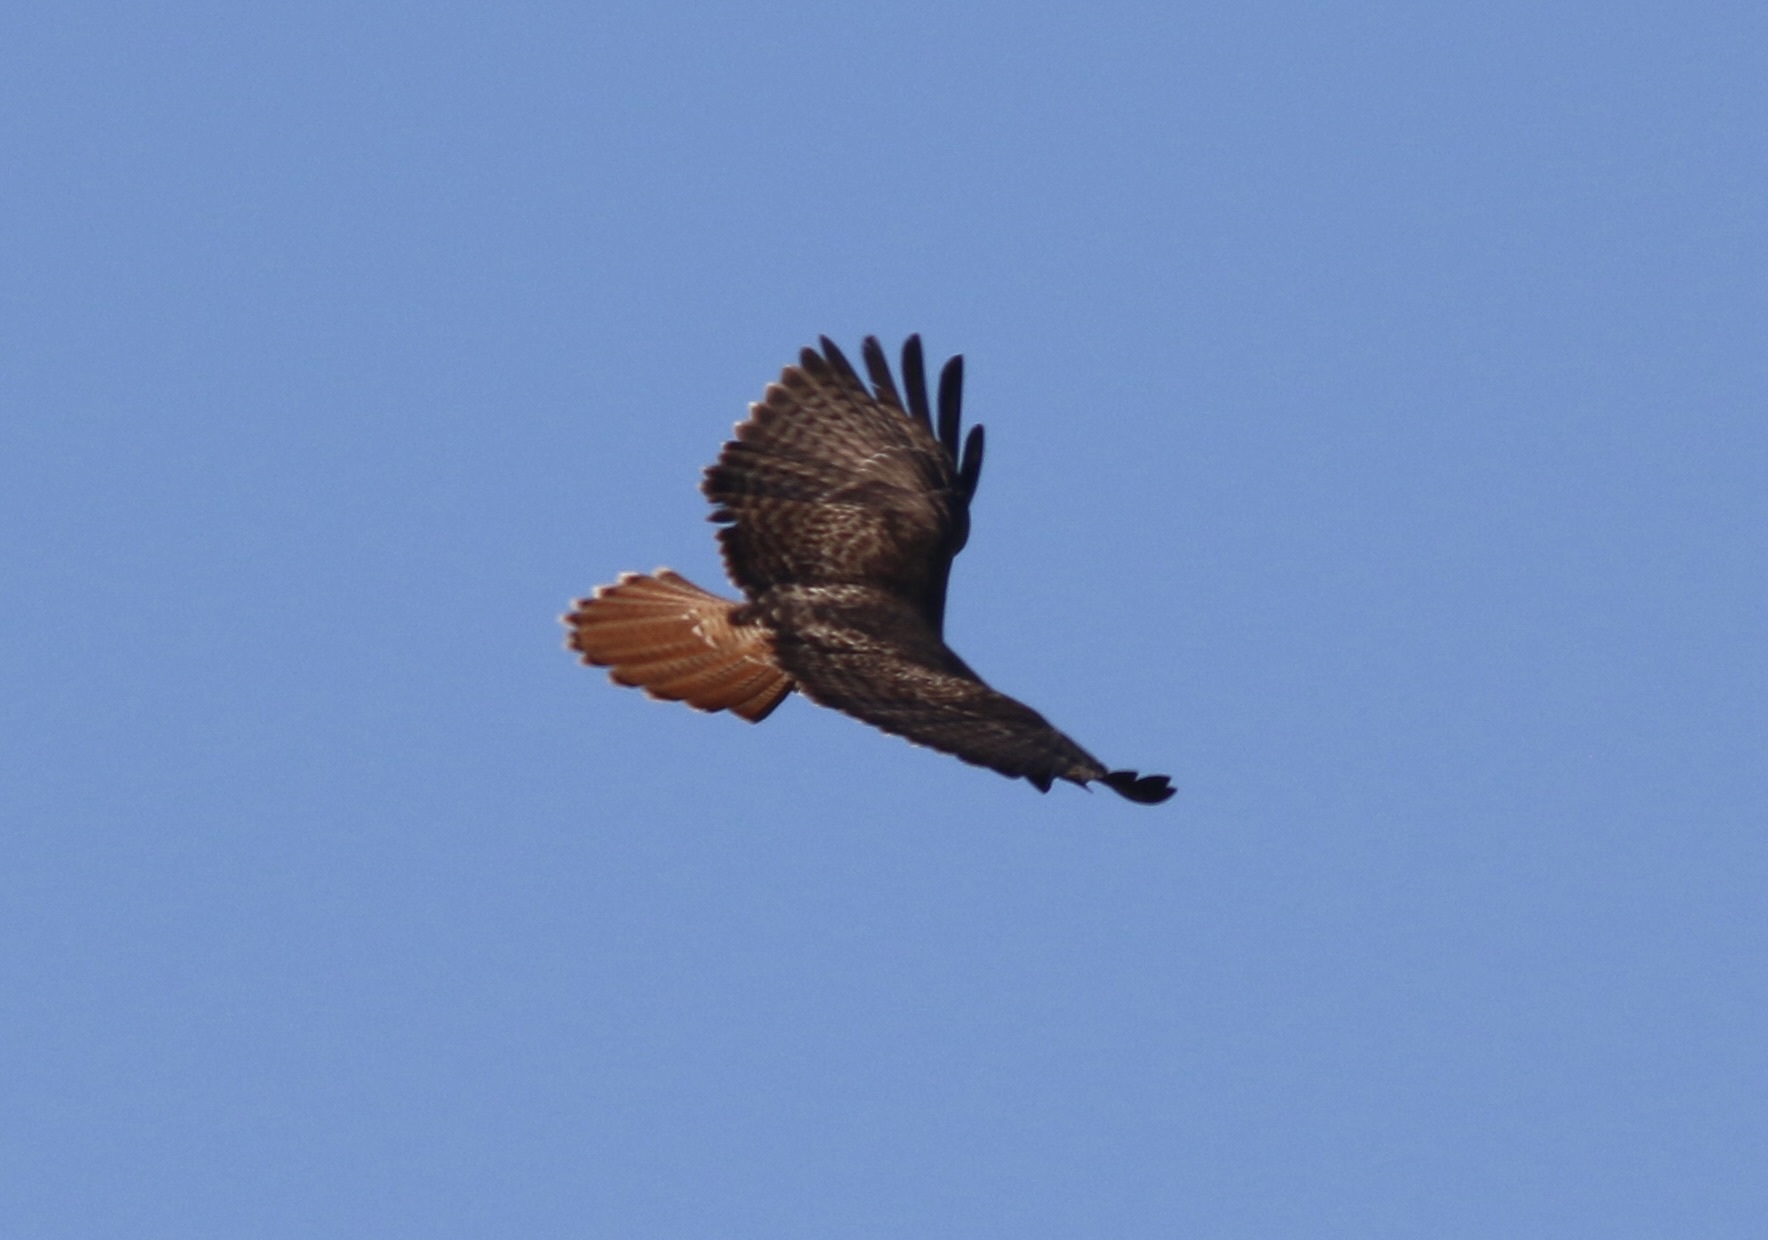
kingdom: Animalia
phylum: Chordata
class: Aves
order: Accipitriformes
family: Accipitridae
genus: Buteo
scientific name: Buteo jamaicensis
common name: Red-tailed hawk
